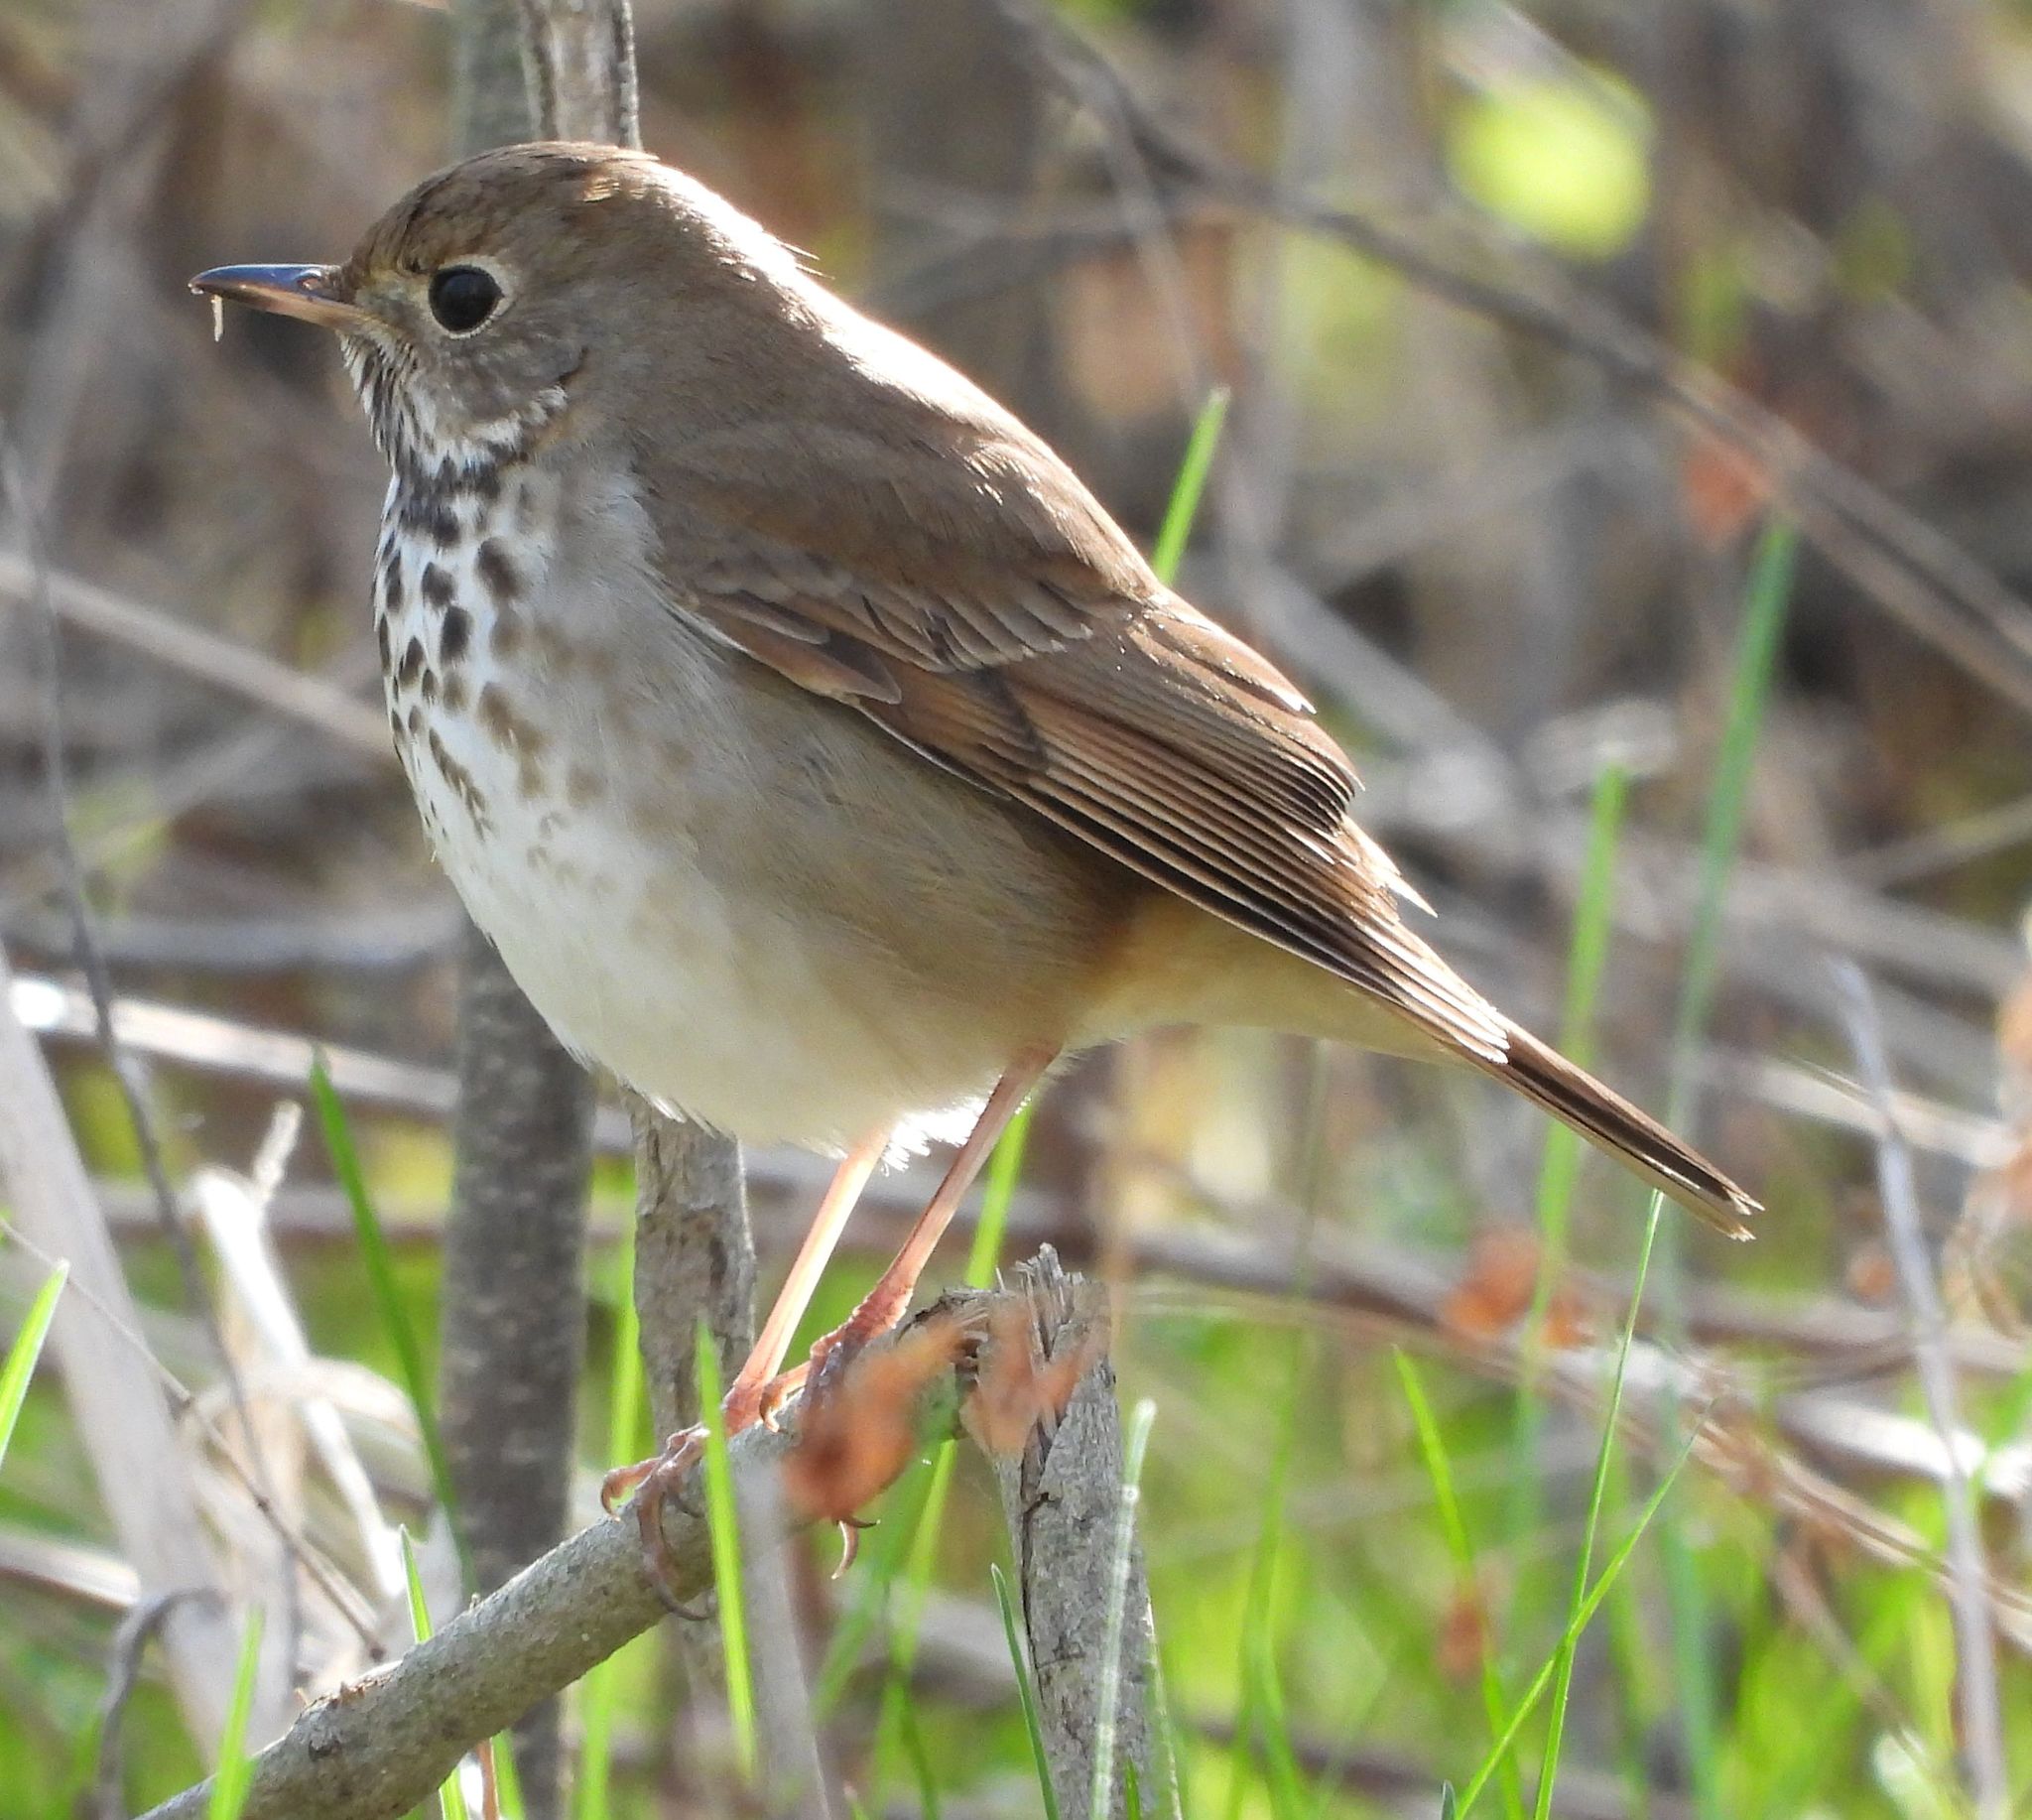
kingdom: Animalia
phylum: Chordata
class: Aves
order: Passeriformes
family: Turdidae
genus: Catharus
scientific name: Catharus guttatus
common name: Hermit thrush
